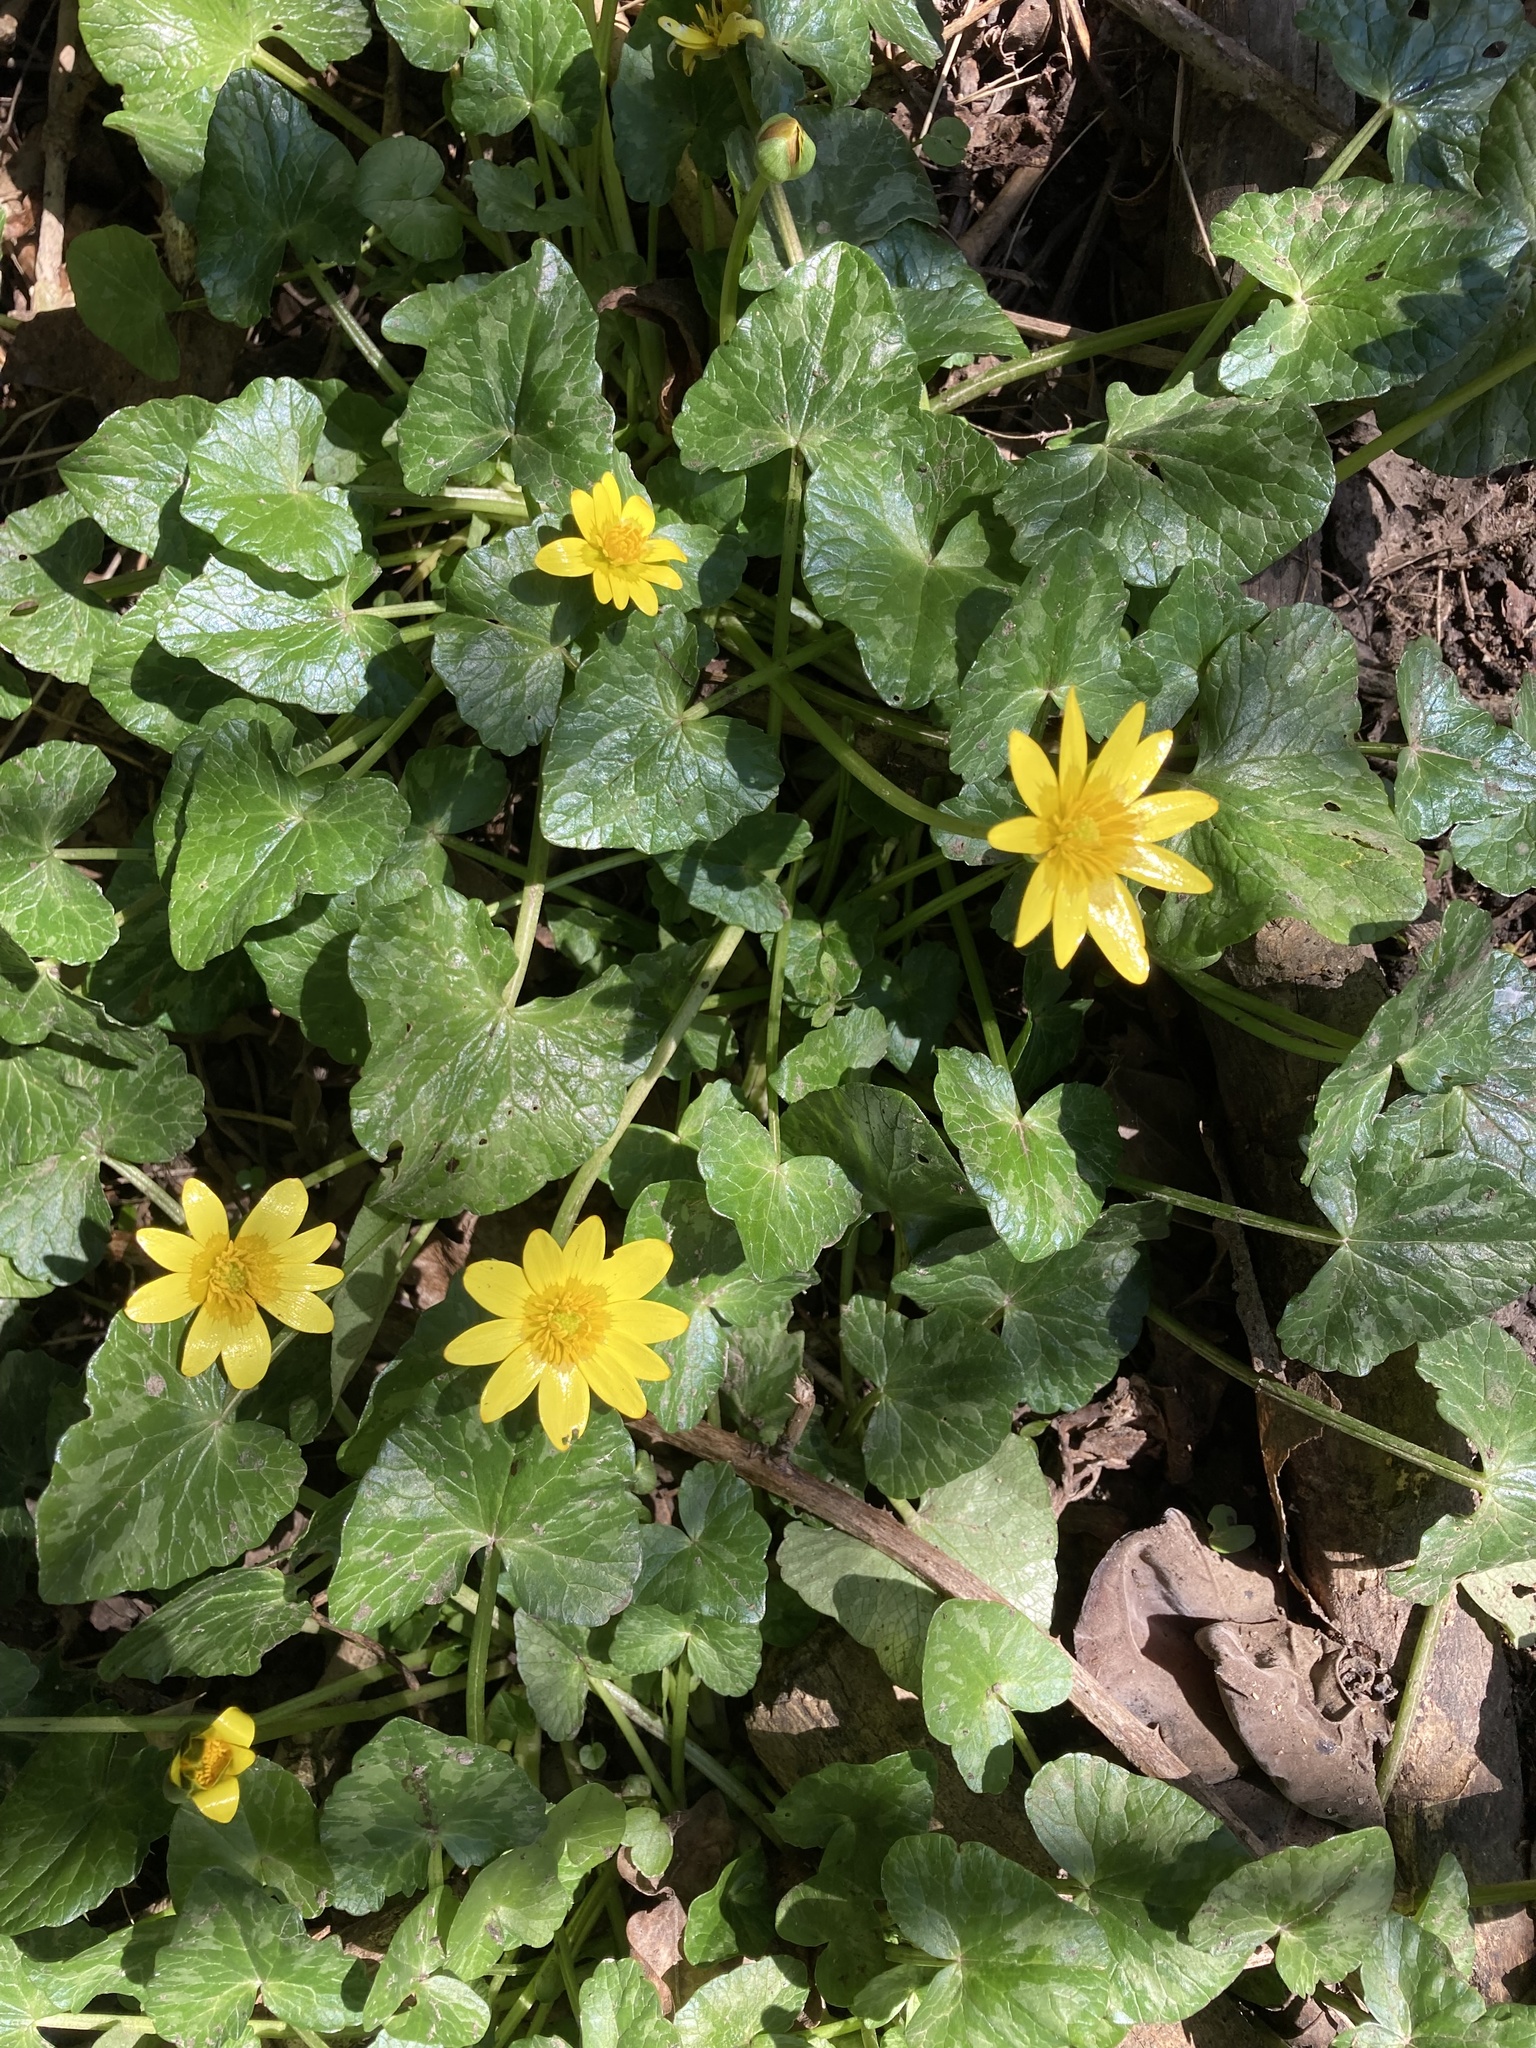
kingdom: Plantae
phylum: Tracheophyta
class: Magnoliopsida
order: Ranunculales
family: Ranunculaceae
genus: Ficaria
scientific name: Ficaria verna
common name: Lesser celandine
